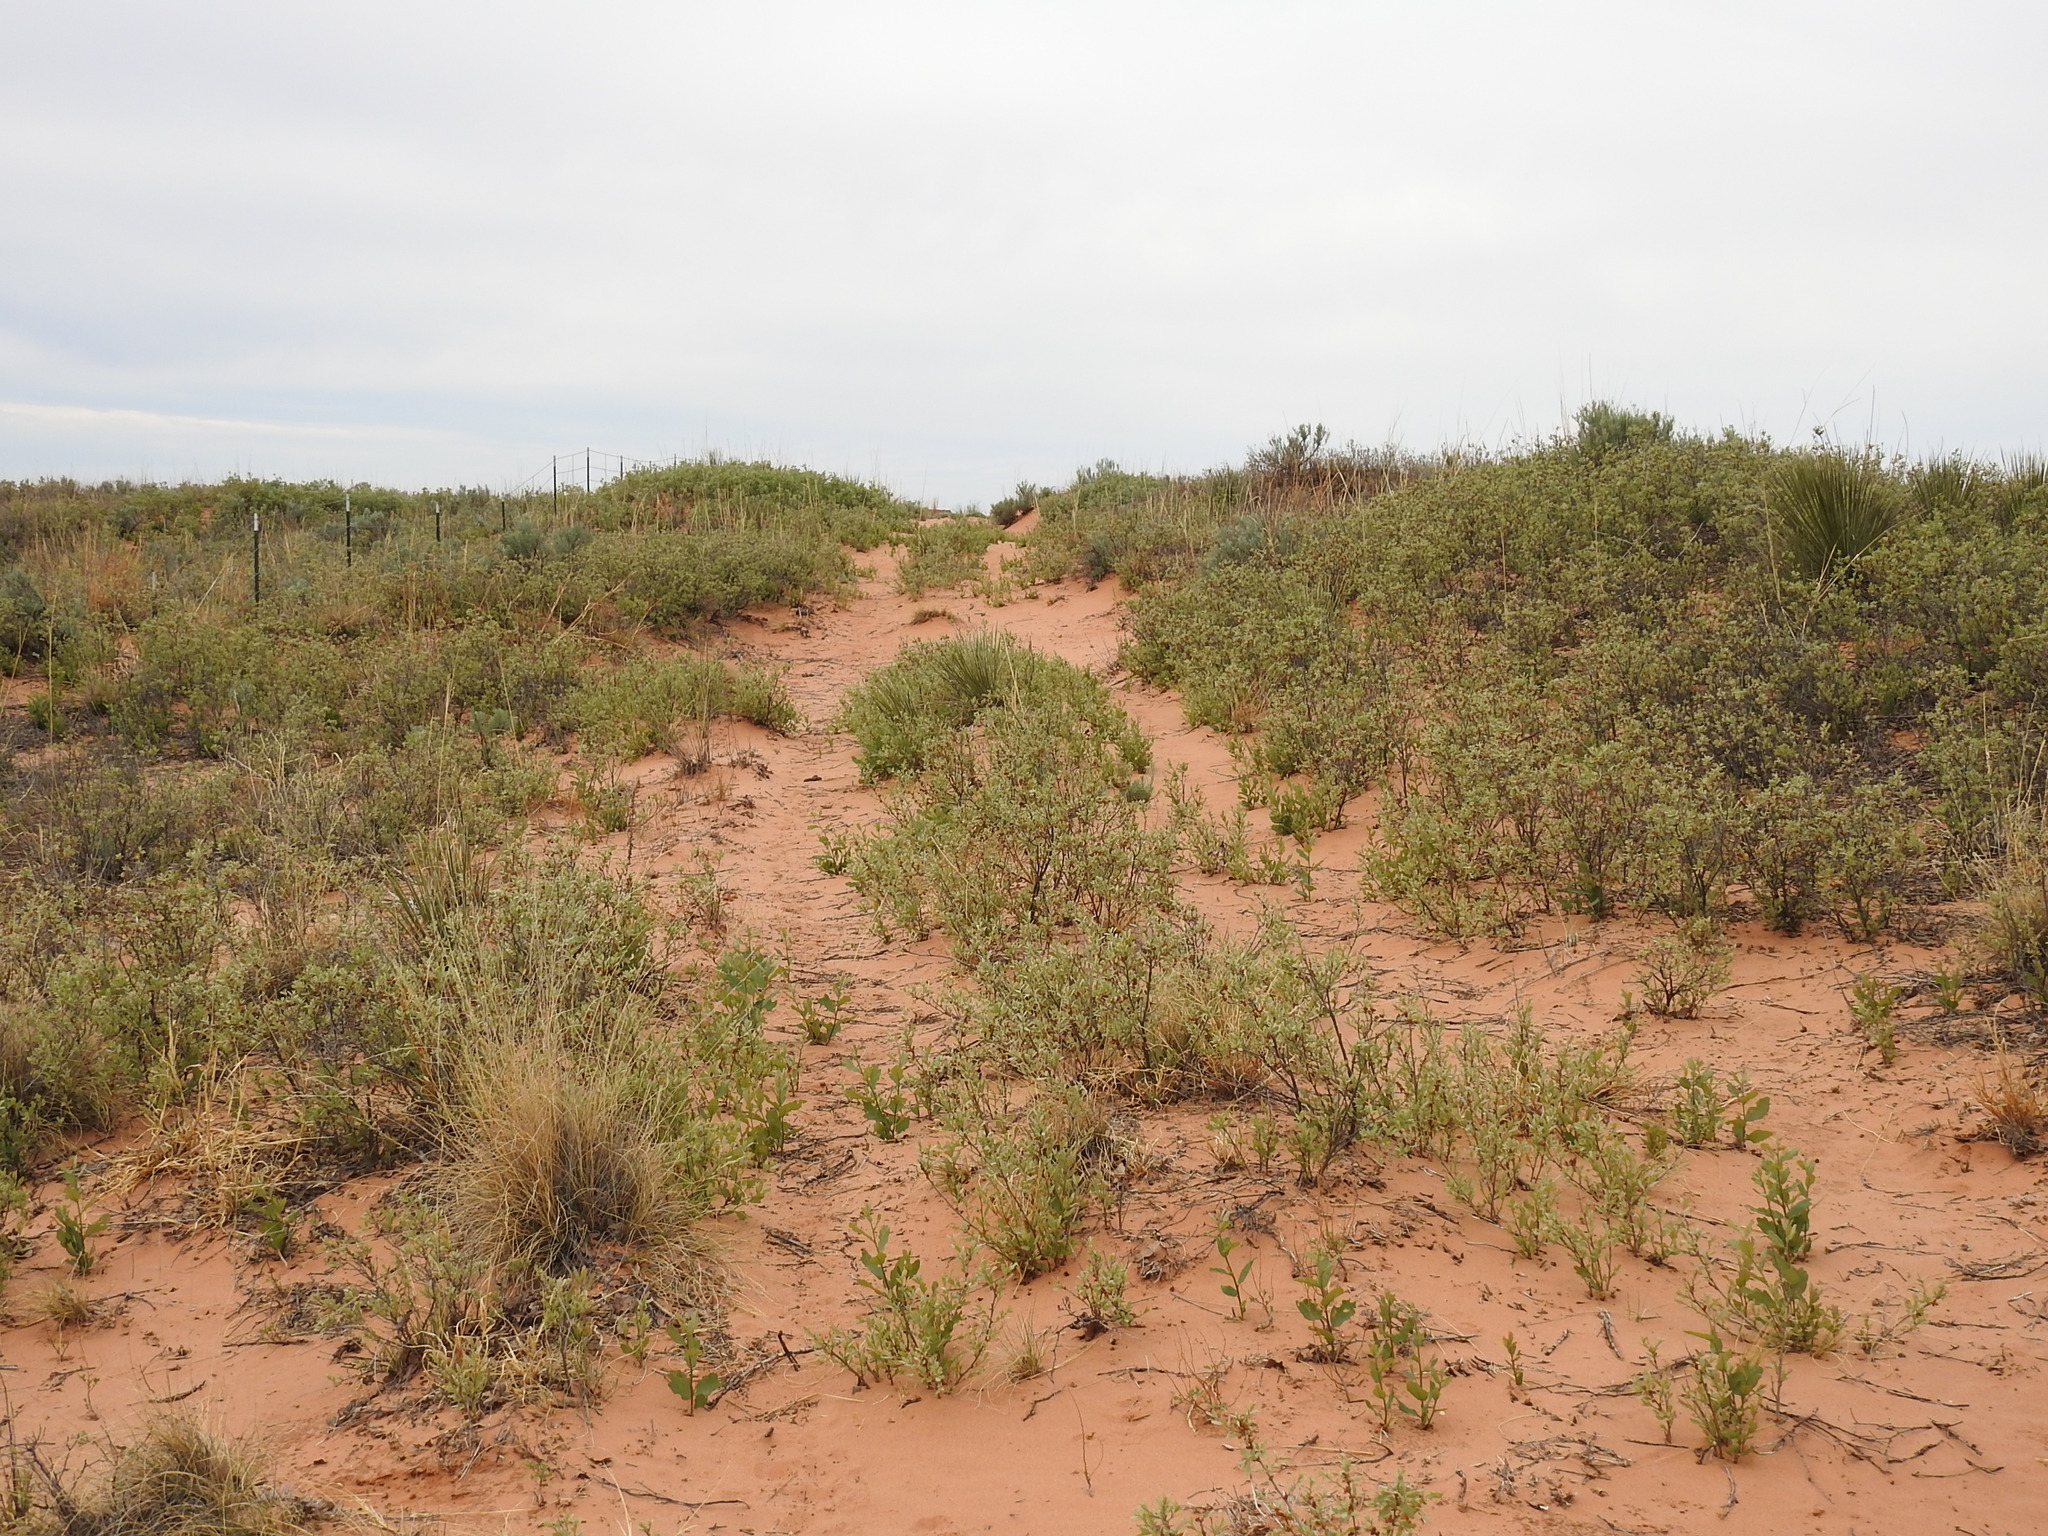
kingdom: Plantae
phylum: Tracheophyta
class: Magnoliopsida
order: Fagales
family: Fagaceae
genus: Quercus
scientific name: Quercus havardii
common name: Shinnery oak
